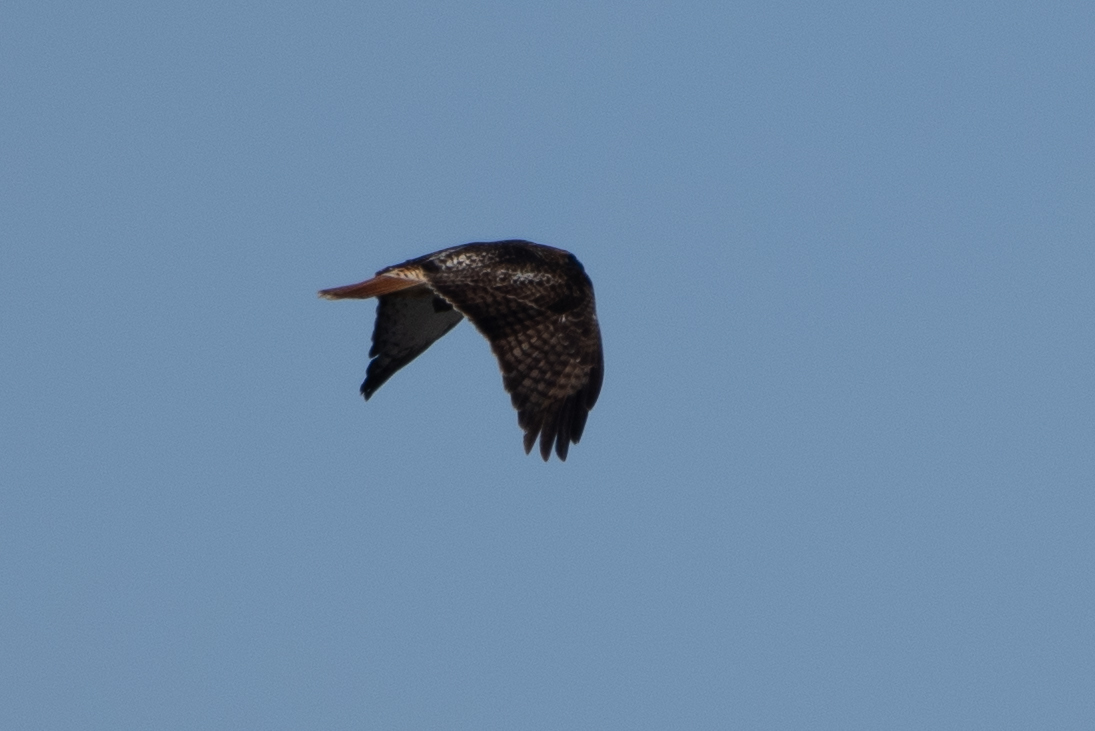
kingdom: Animalia
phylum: Chordata
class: Aves
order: Accipitriformes
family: Accipitridae
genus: Buteo
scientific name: Buteo jamaicensis
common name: Red-tailed hawk
